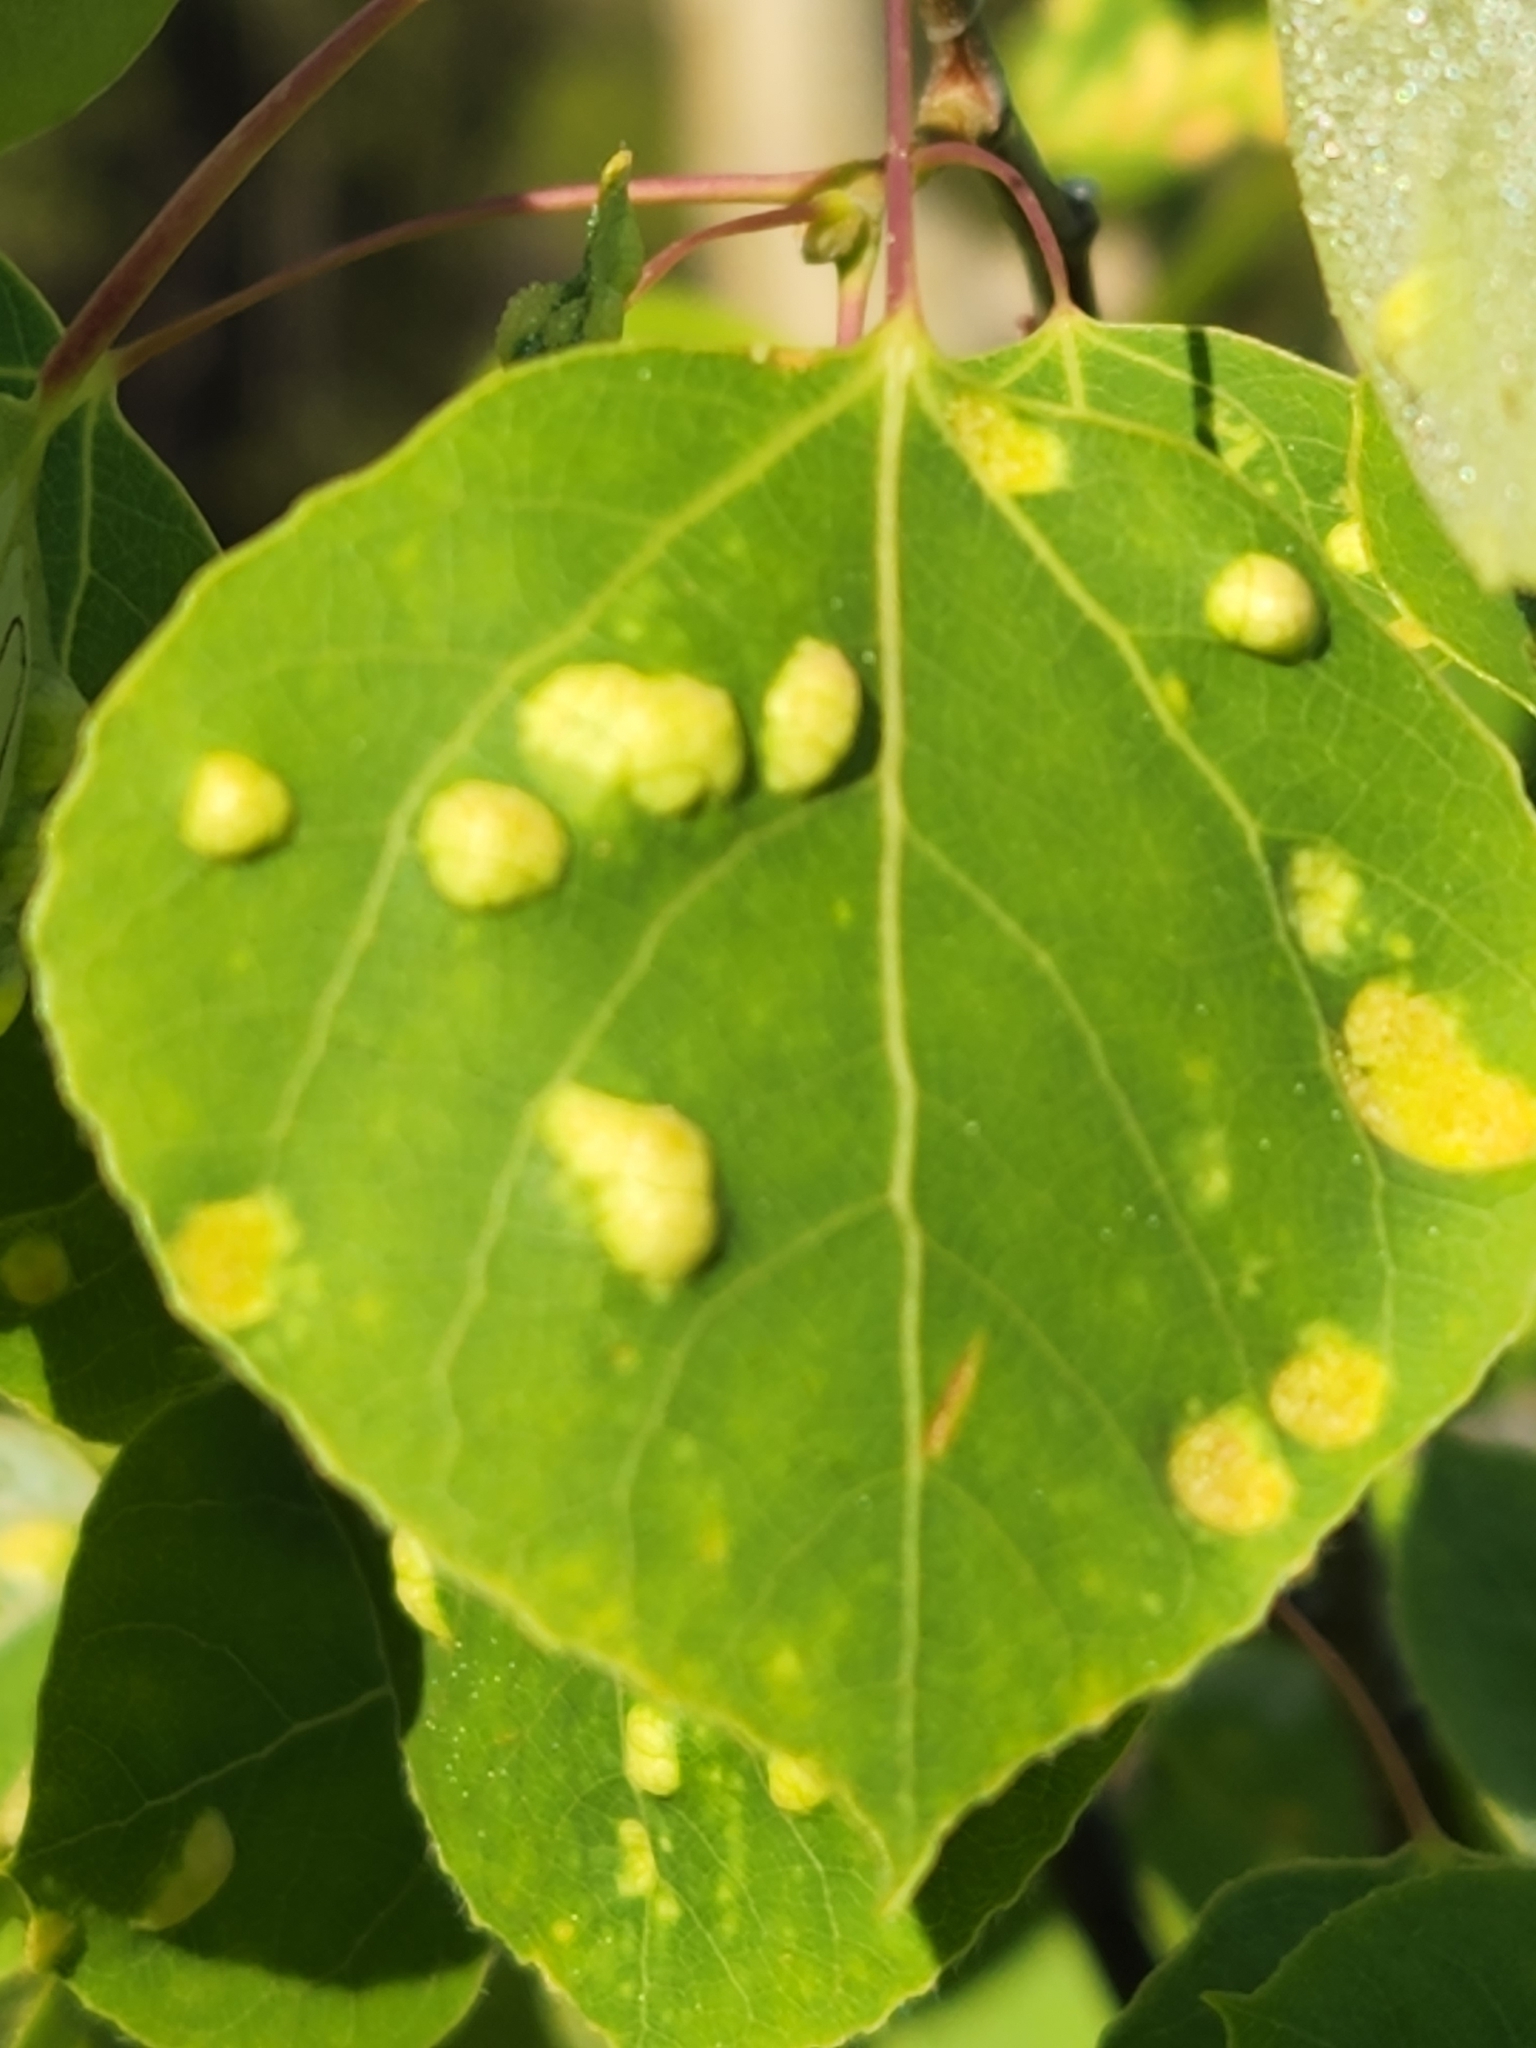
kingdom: Animalia
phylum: Arthropoda
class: Arachnida
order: Trombidiformes
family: Eriophyidae
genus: Phyllocoptes
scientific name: Phyllocoptes
